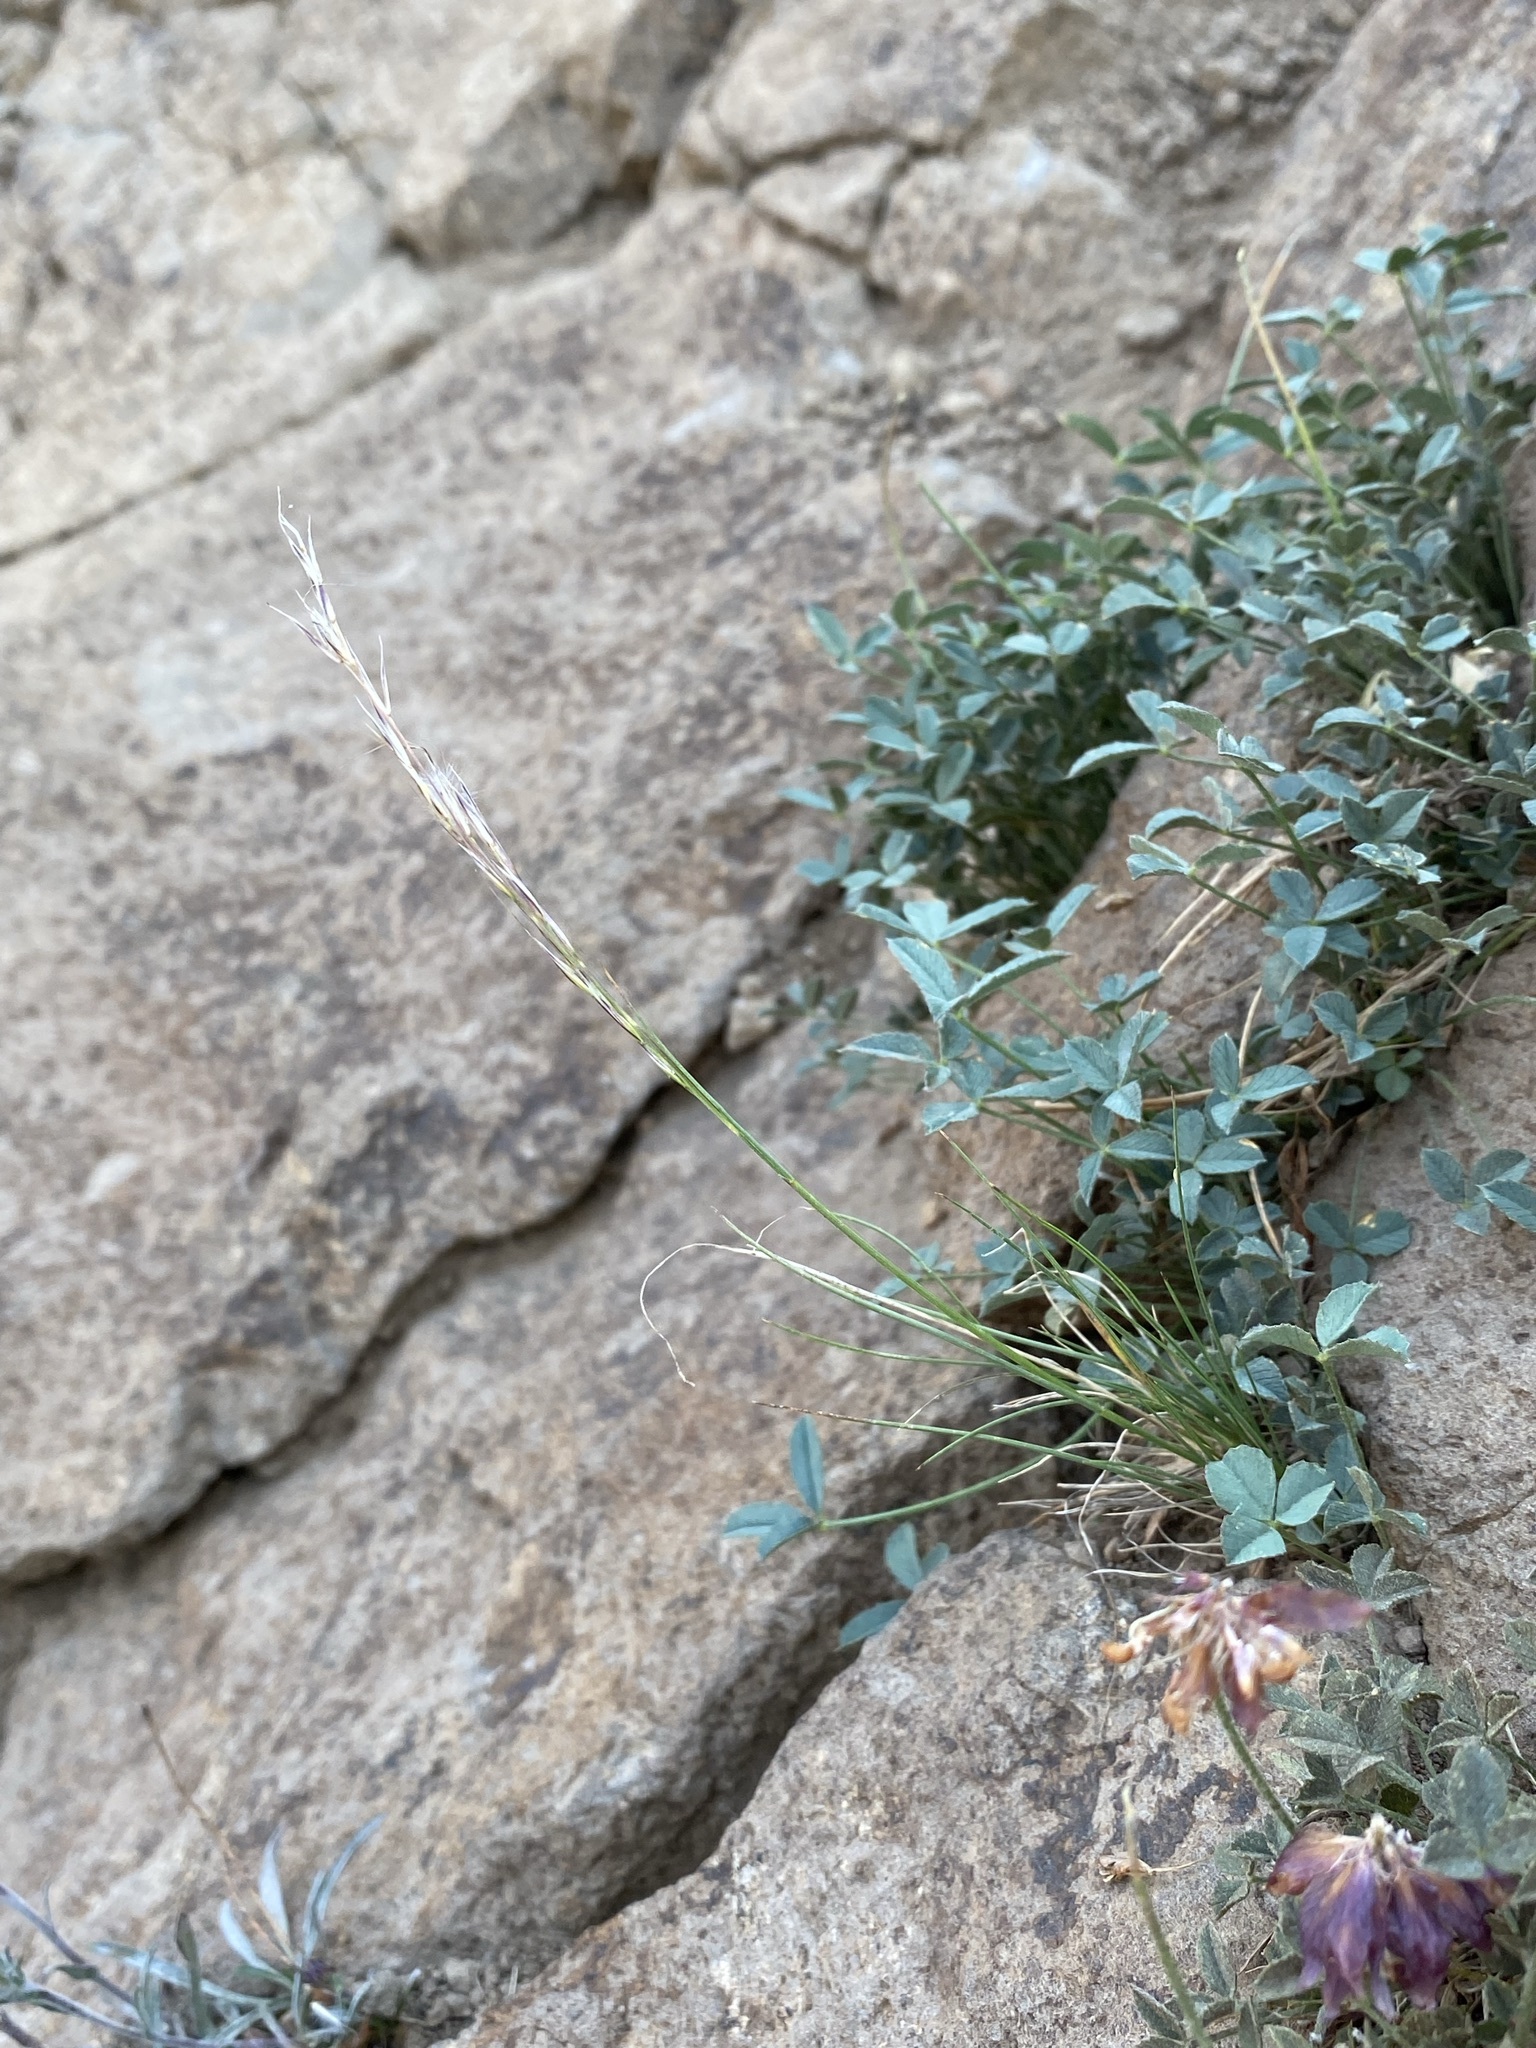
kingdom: Plantae
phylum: Tracheophyta
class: Liliopsida
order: Poales
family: Poaceae
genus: Eriocoma
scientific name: Eriocoma pinetorum
